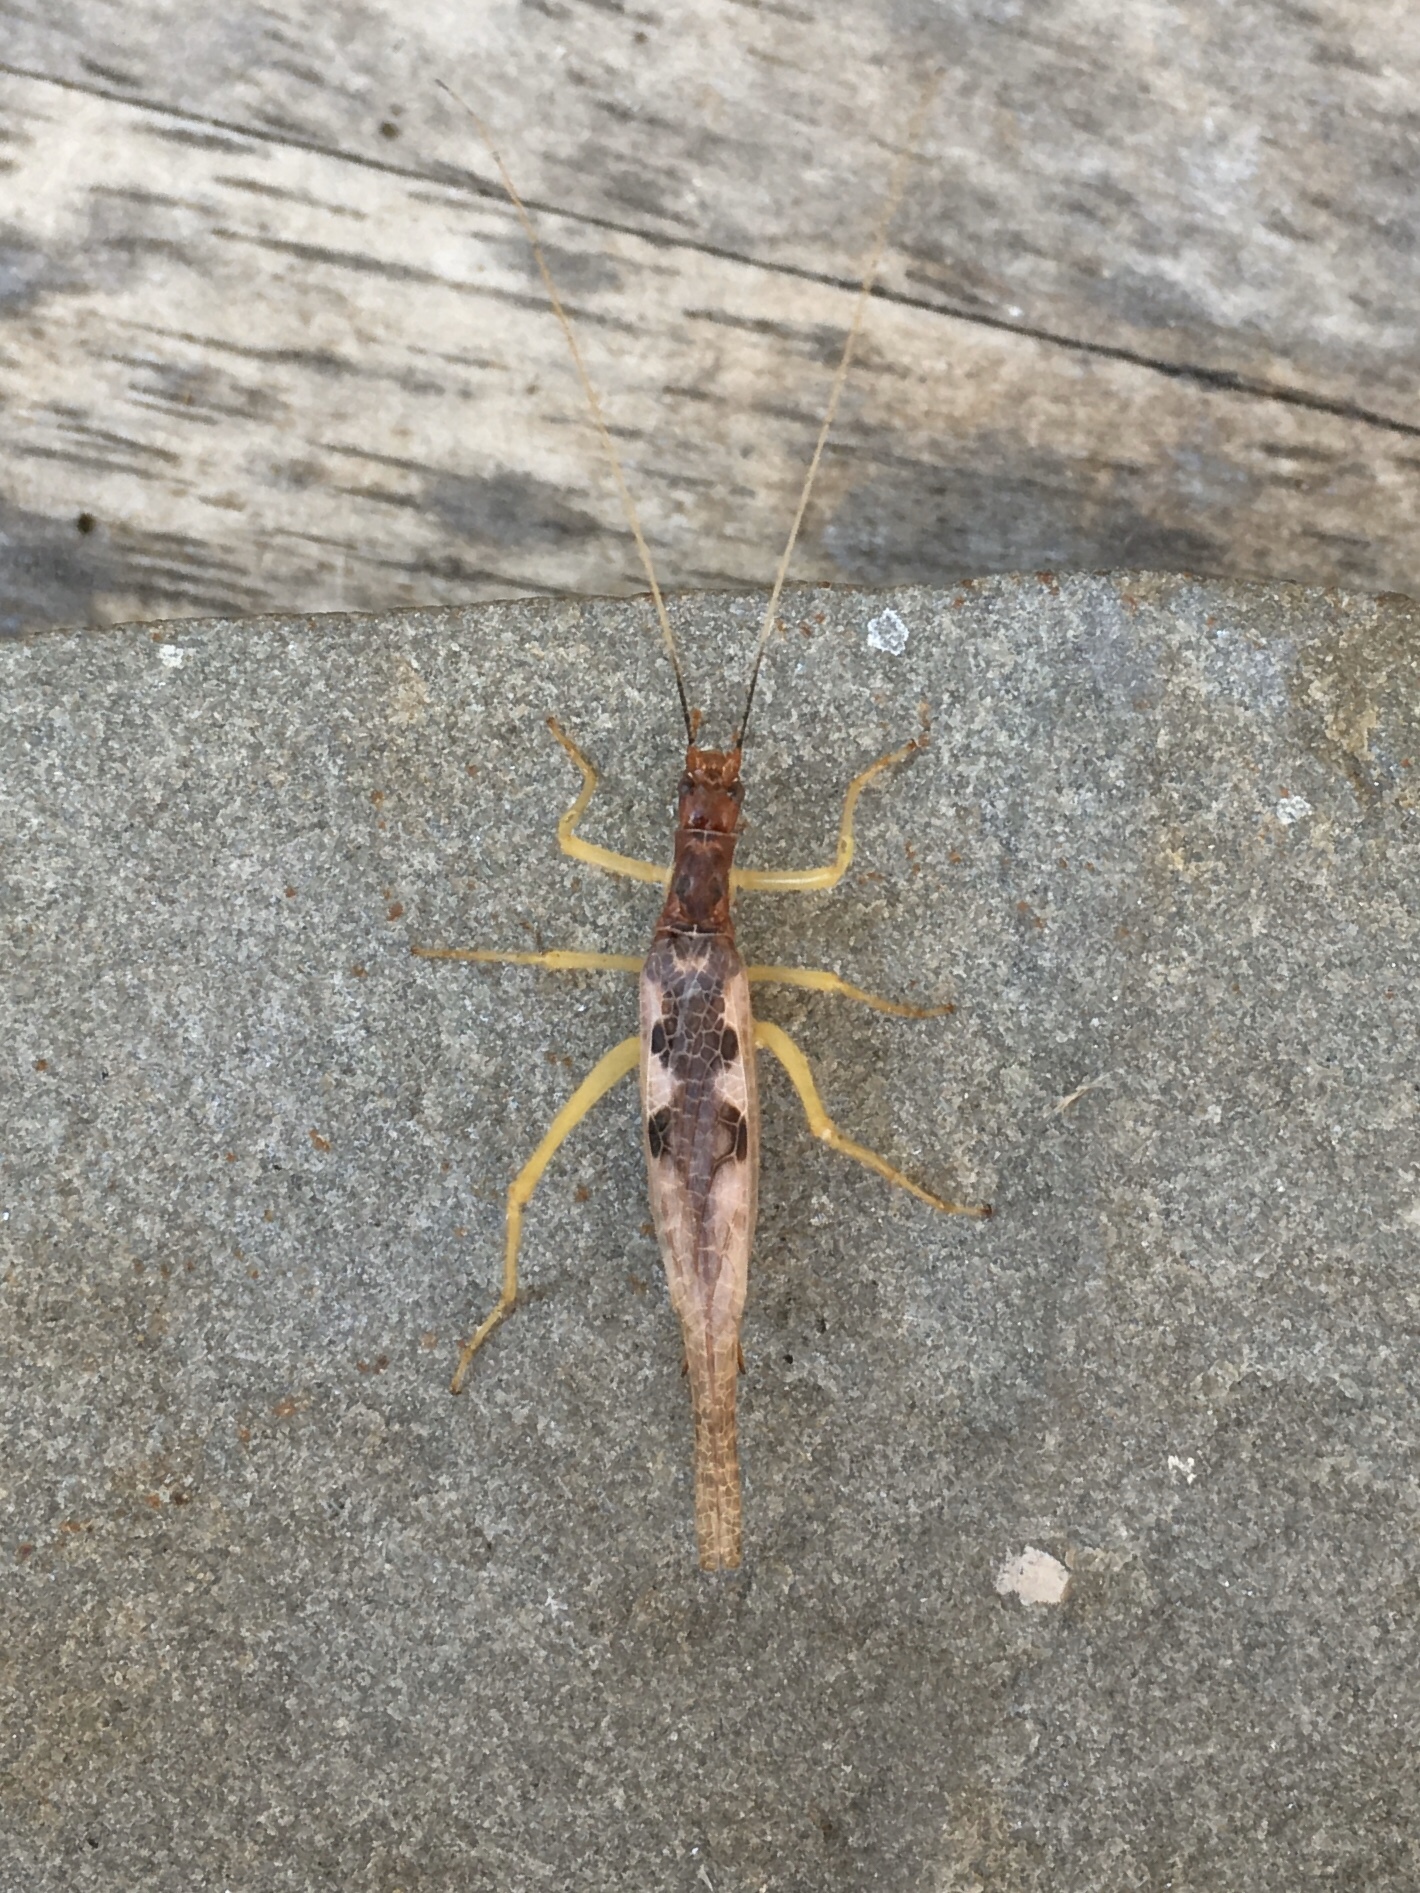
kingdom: Animalia
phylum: Arthropoda
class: Insecta
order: Orthoptera
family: Gryllidae
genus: Neoxabea
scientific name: Neoxabea bipunctata
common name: Two-spotted tree cricket
